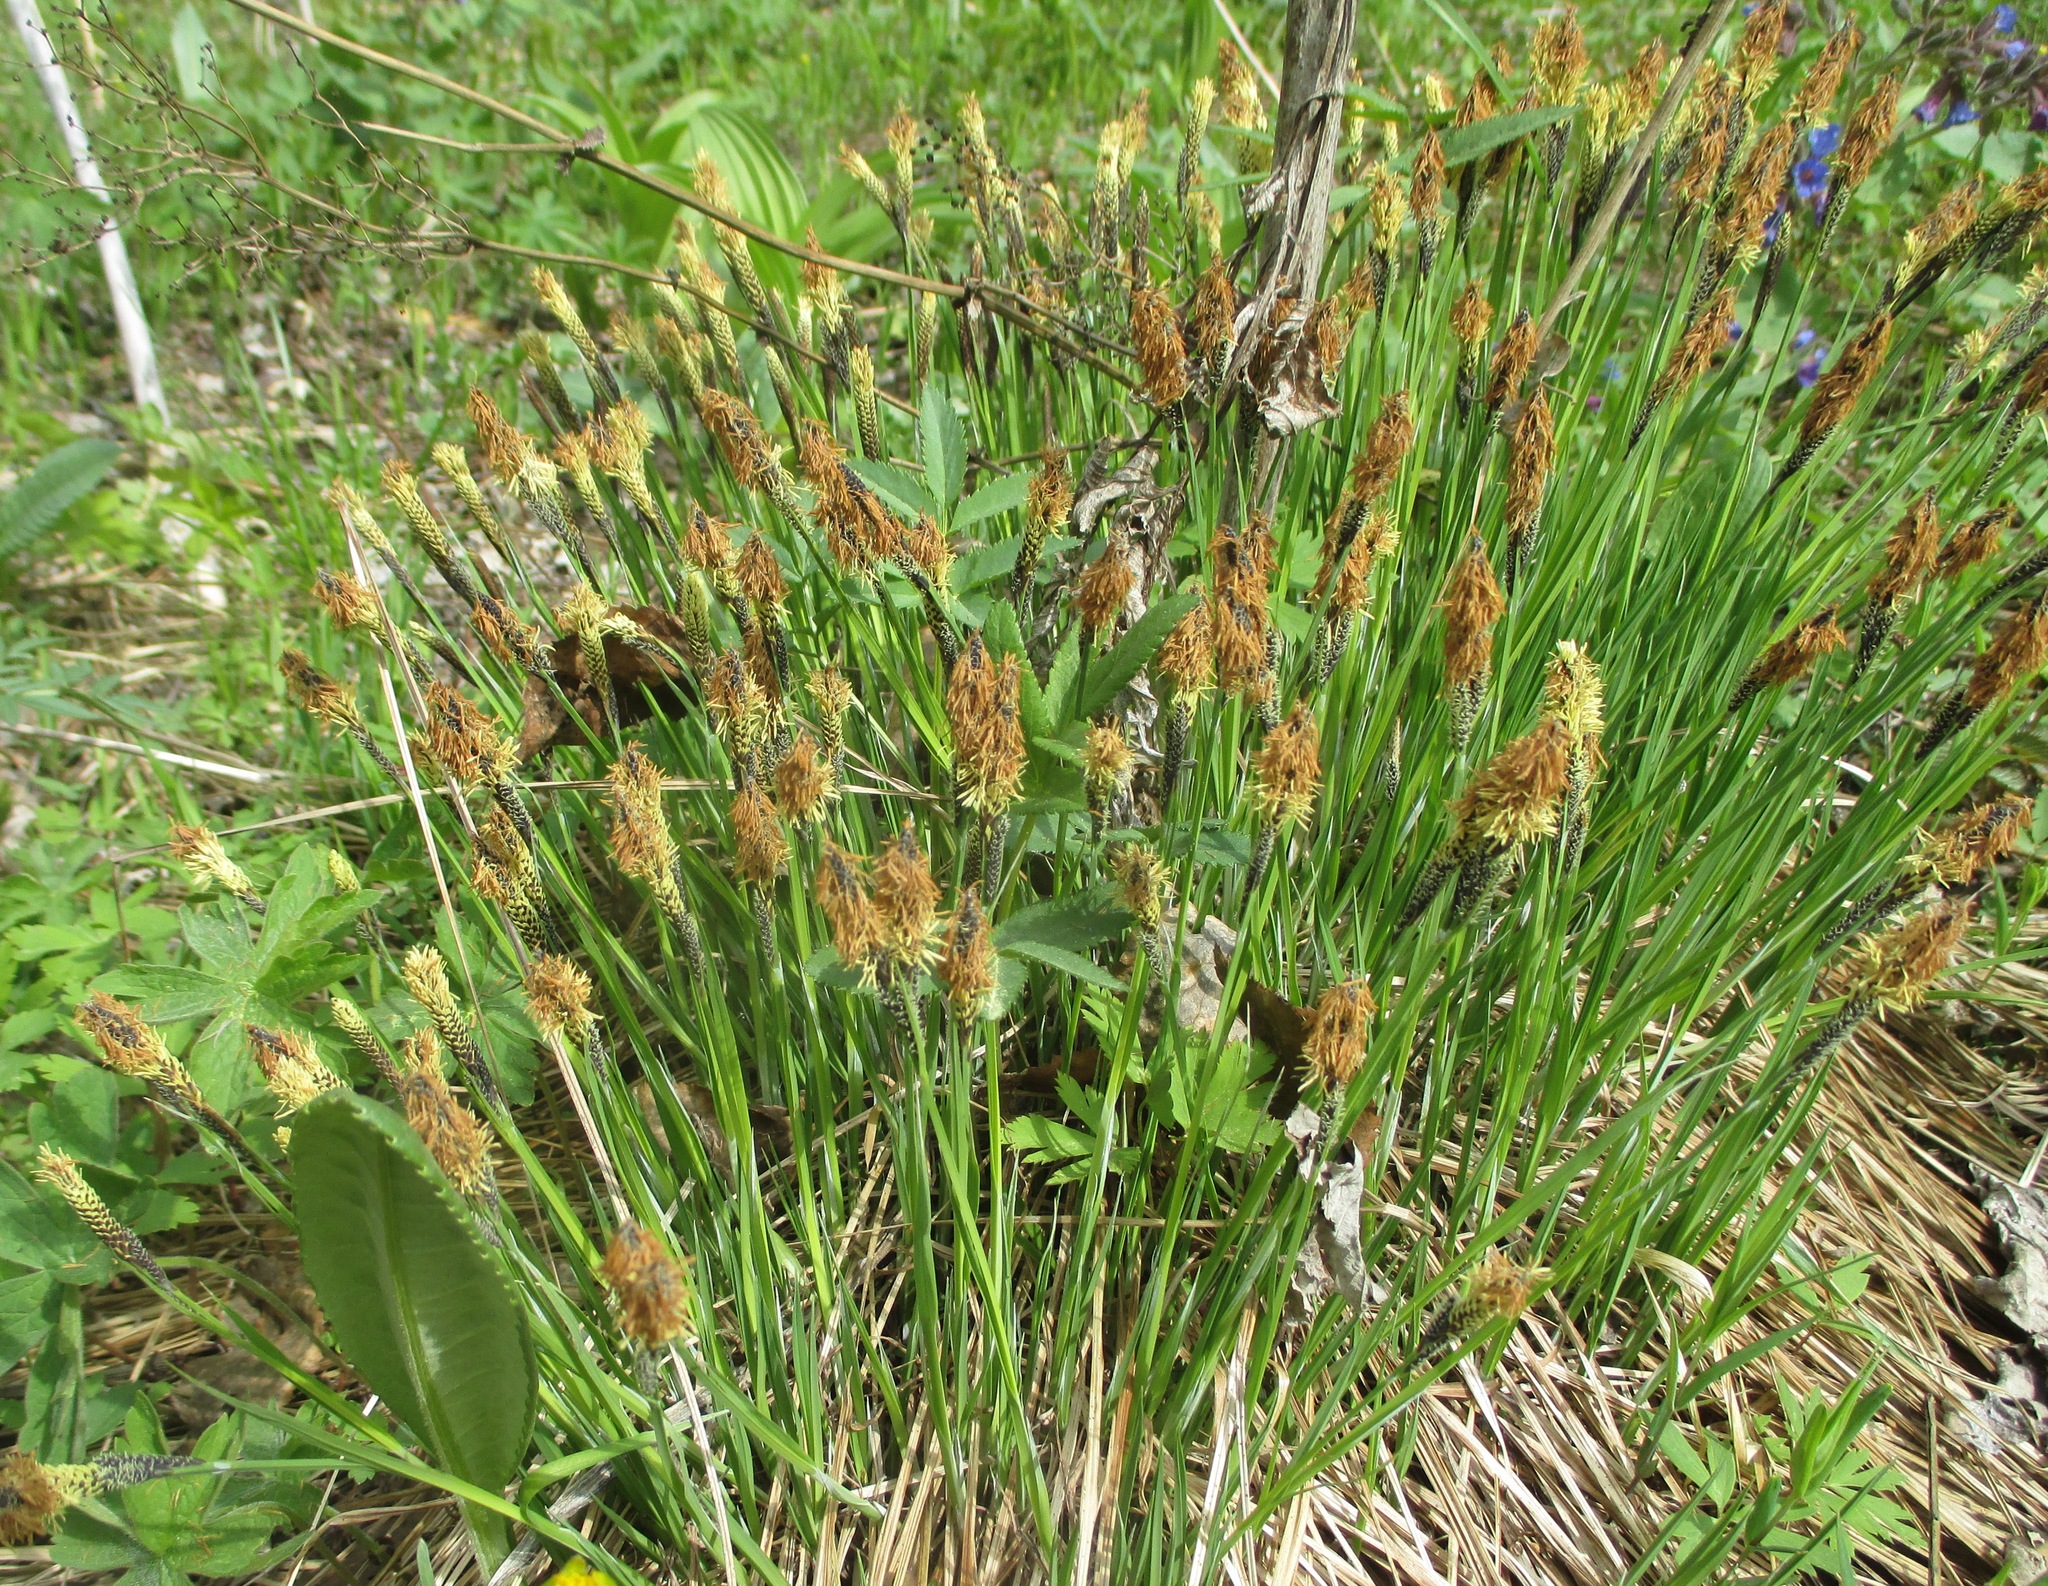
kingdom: Plantae
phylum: Tracheophyta
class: Liliopsida
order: Poales
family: Cyperaceae
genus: Carex
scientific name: Carex cespitosa
